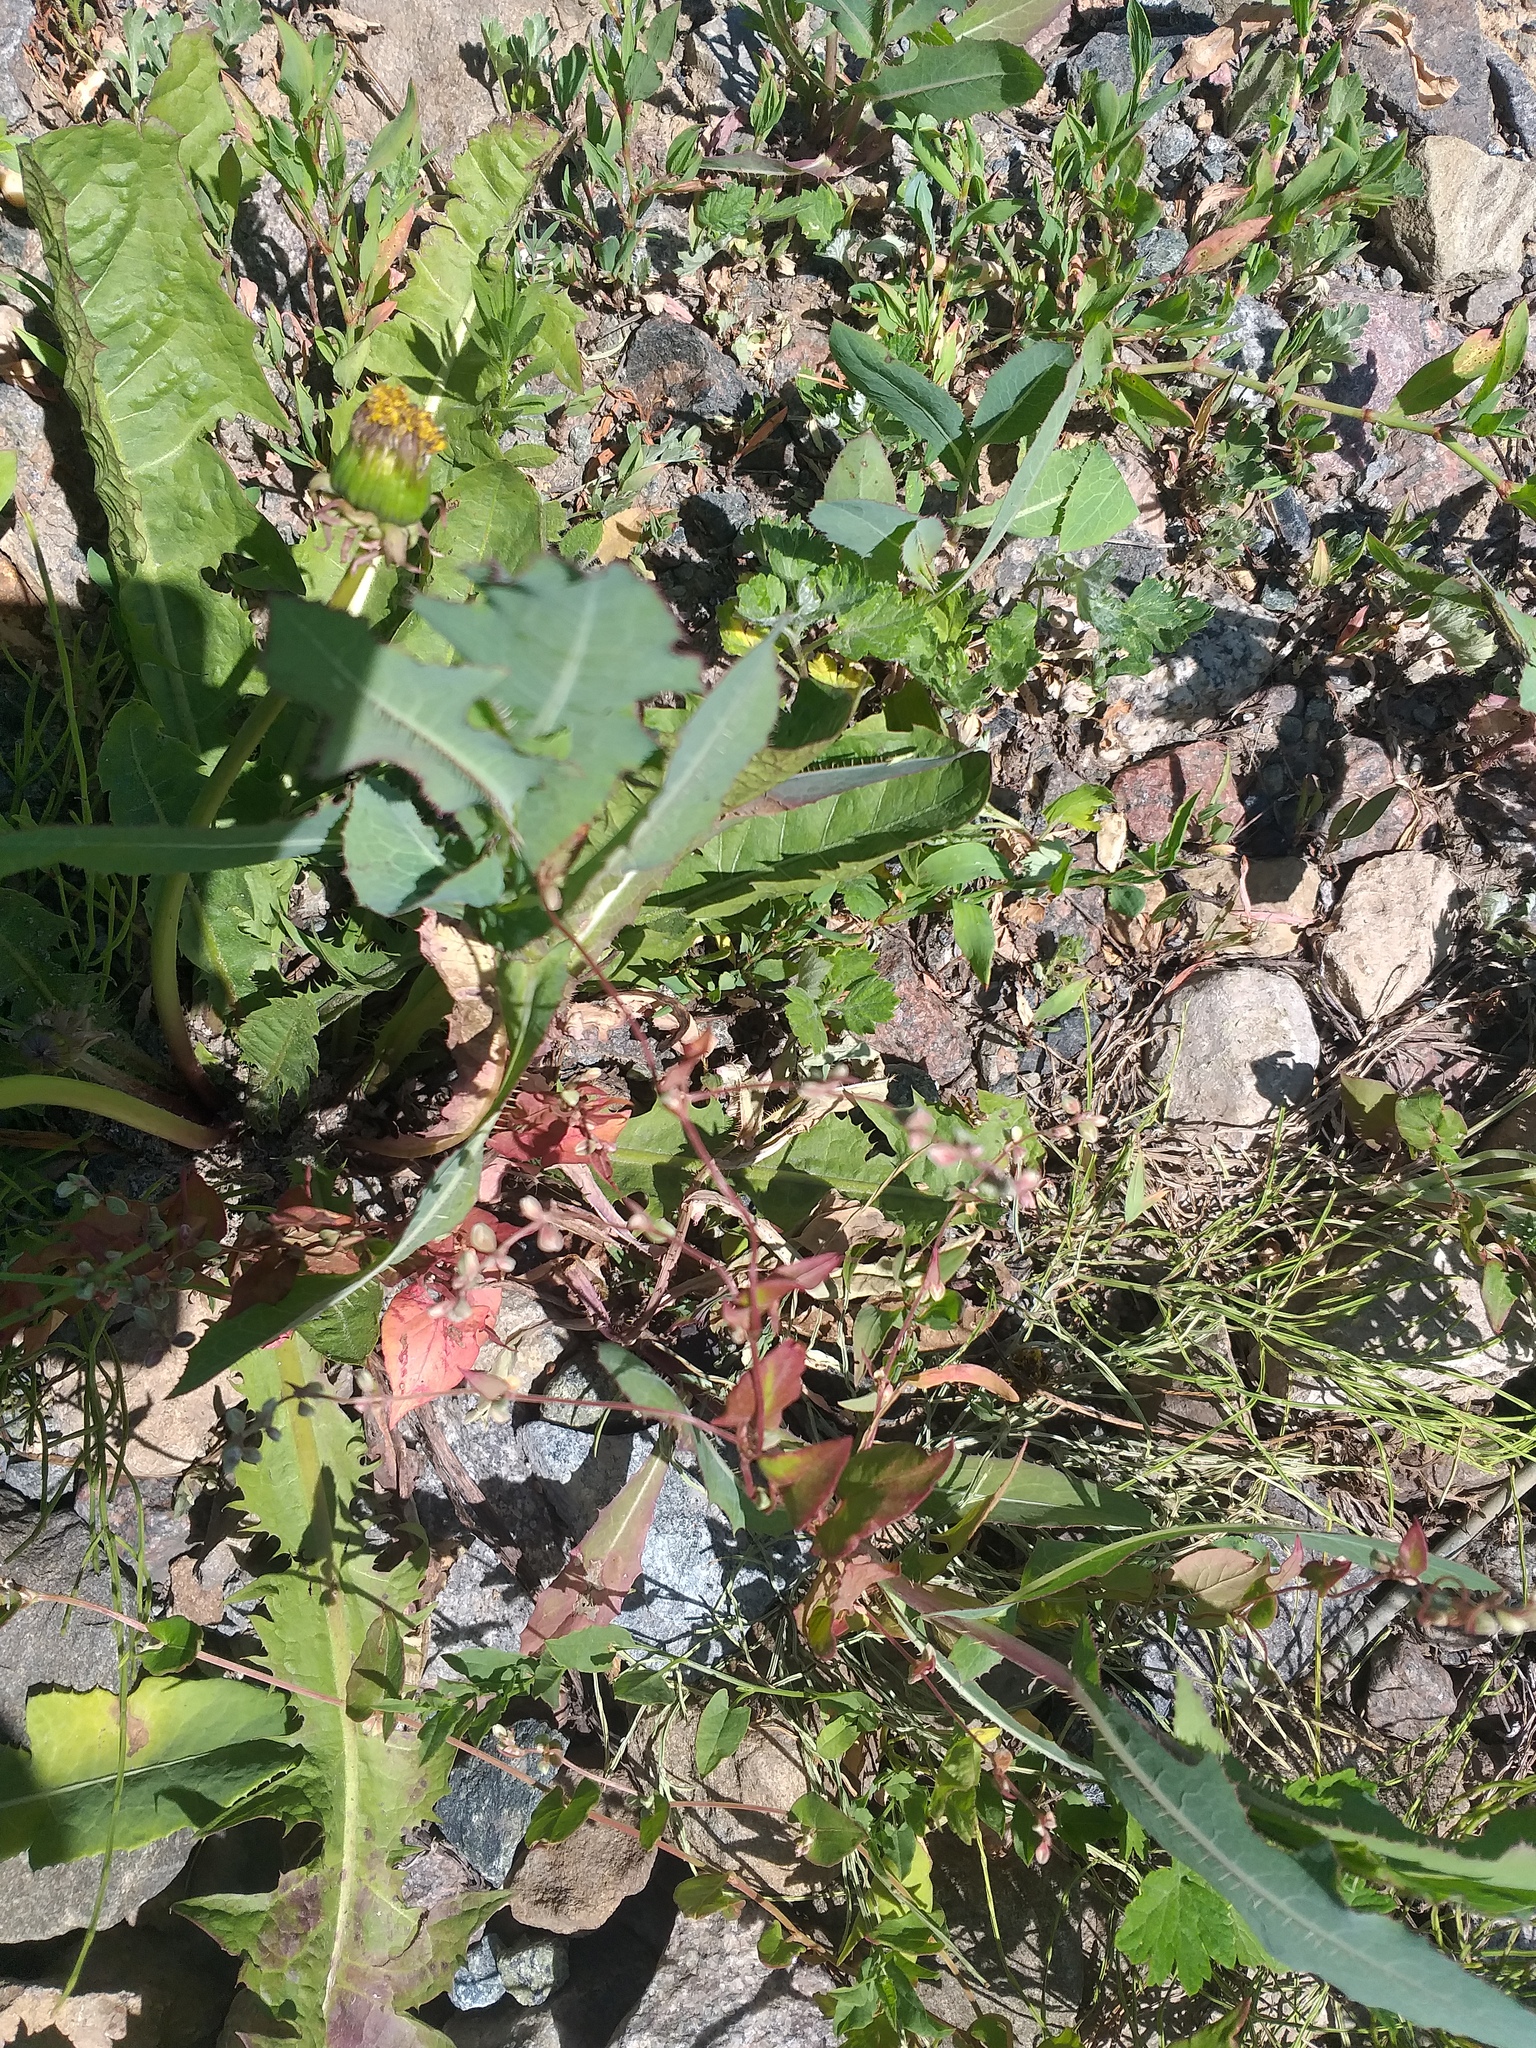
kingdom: Plantae
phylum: Tracheophyta
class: Magnoliopsida
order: Caryophyllales
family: Polygonaceae
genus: Fallopia
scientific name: Fallopia convolvulus
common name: Black bindweed
